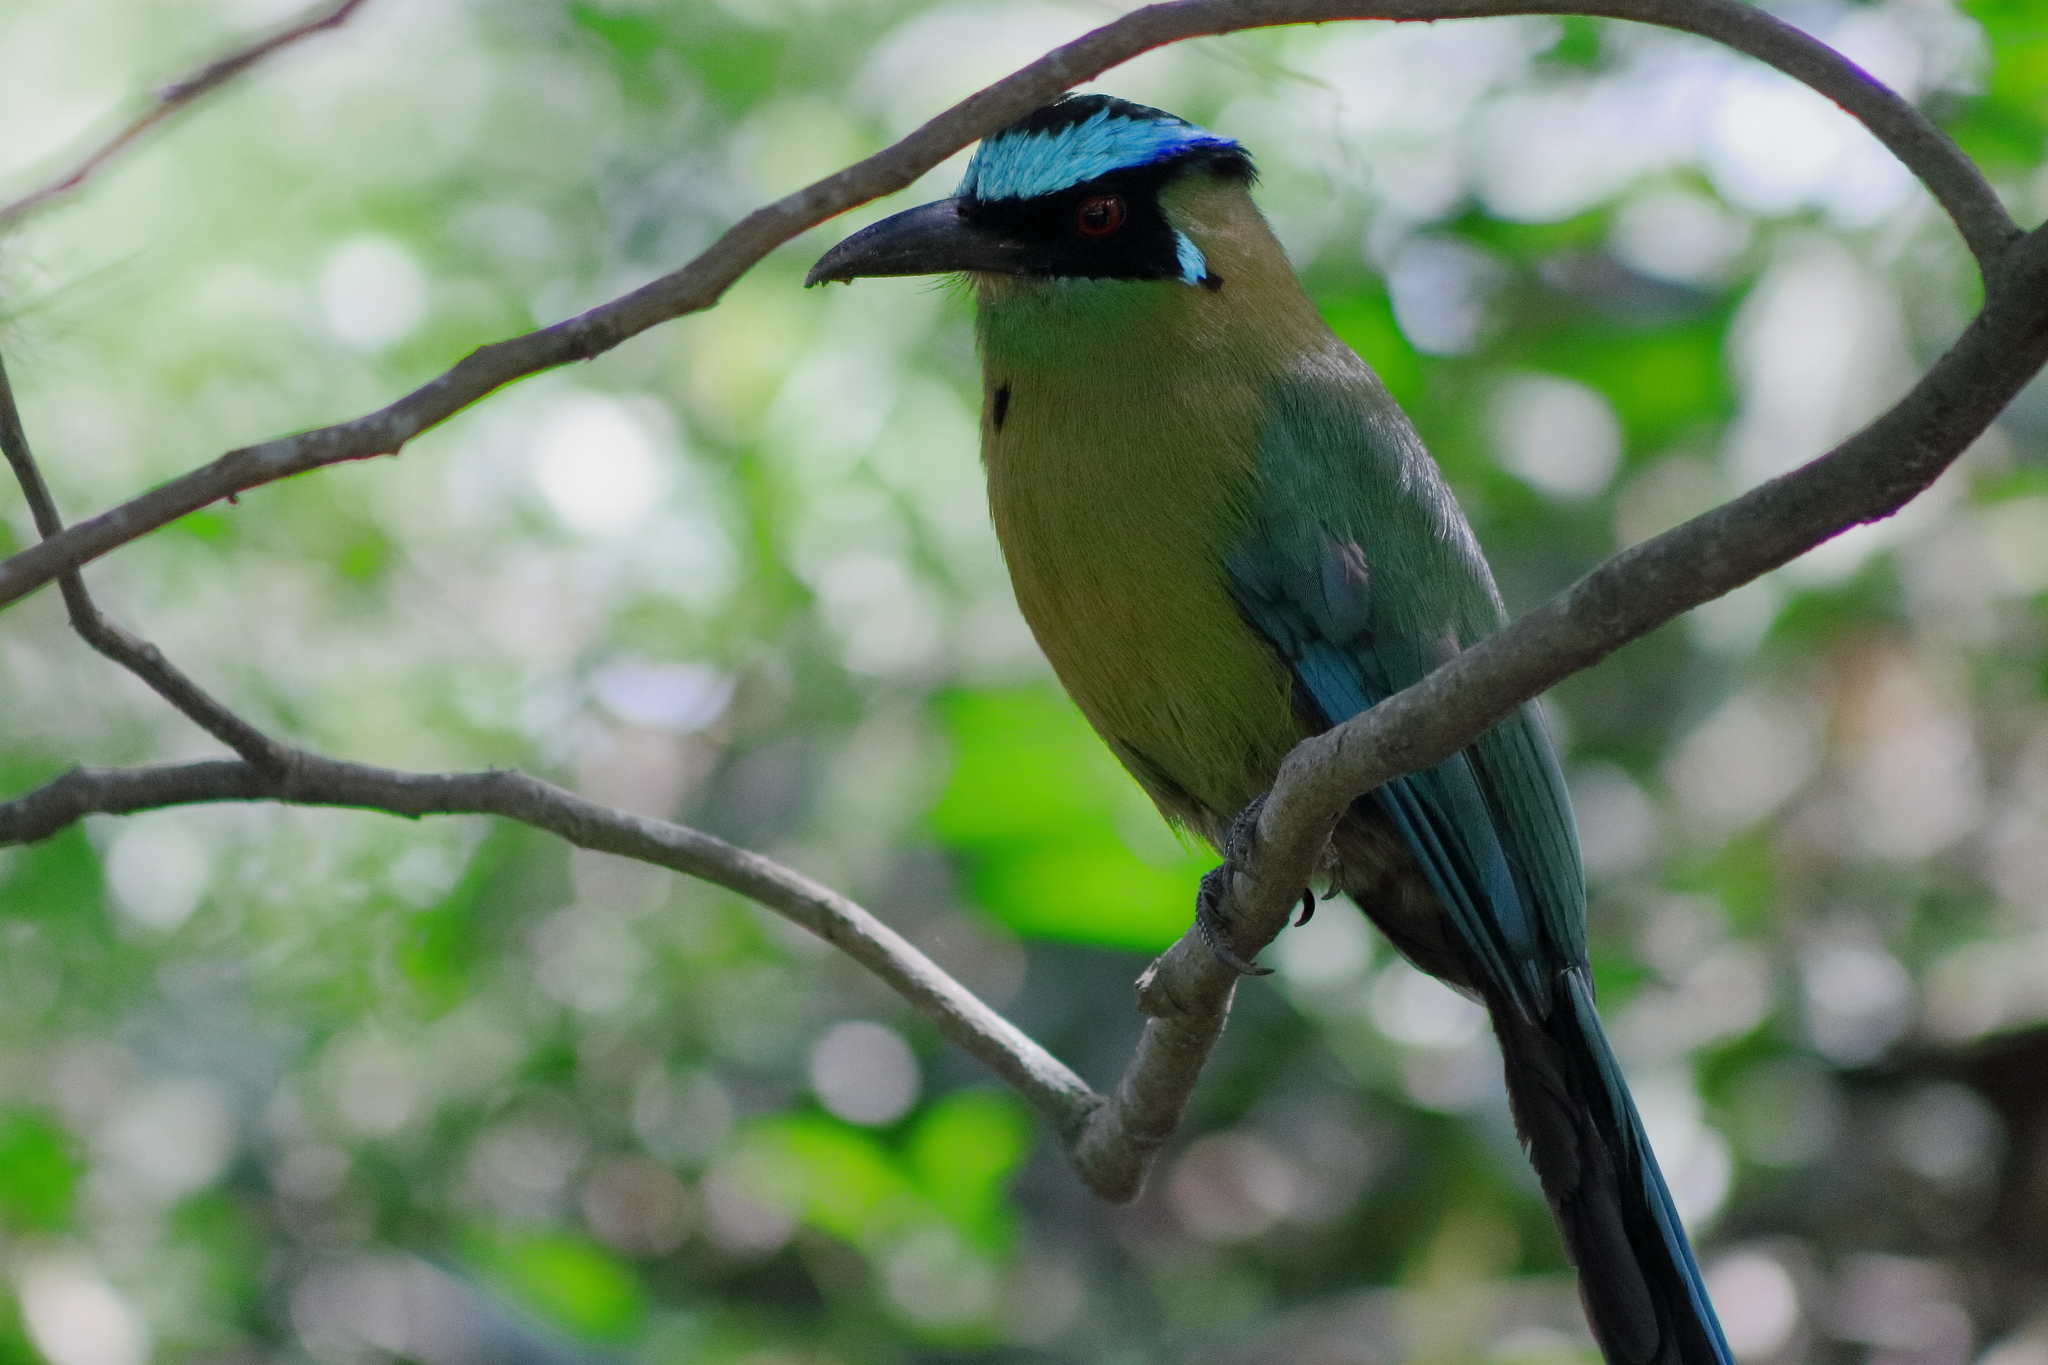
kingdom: Animalia
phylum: Chordata
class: Aves
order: Coraciiformes
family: Momotidae
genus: Momotus
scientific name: Momotus aequatorialis
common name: Andean motmot
